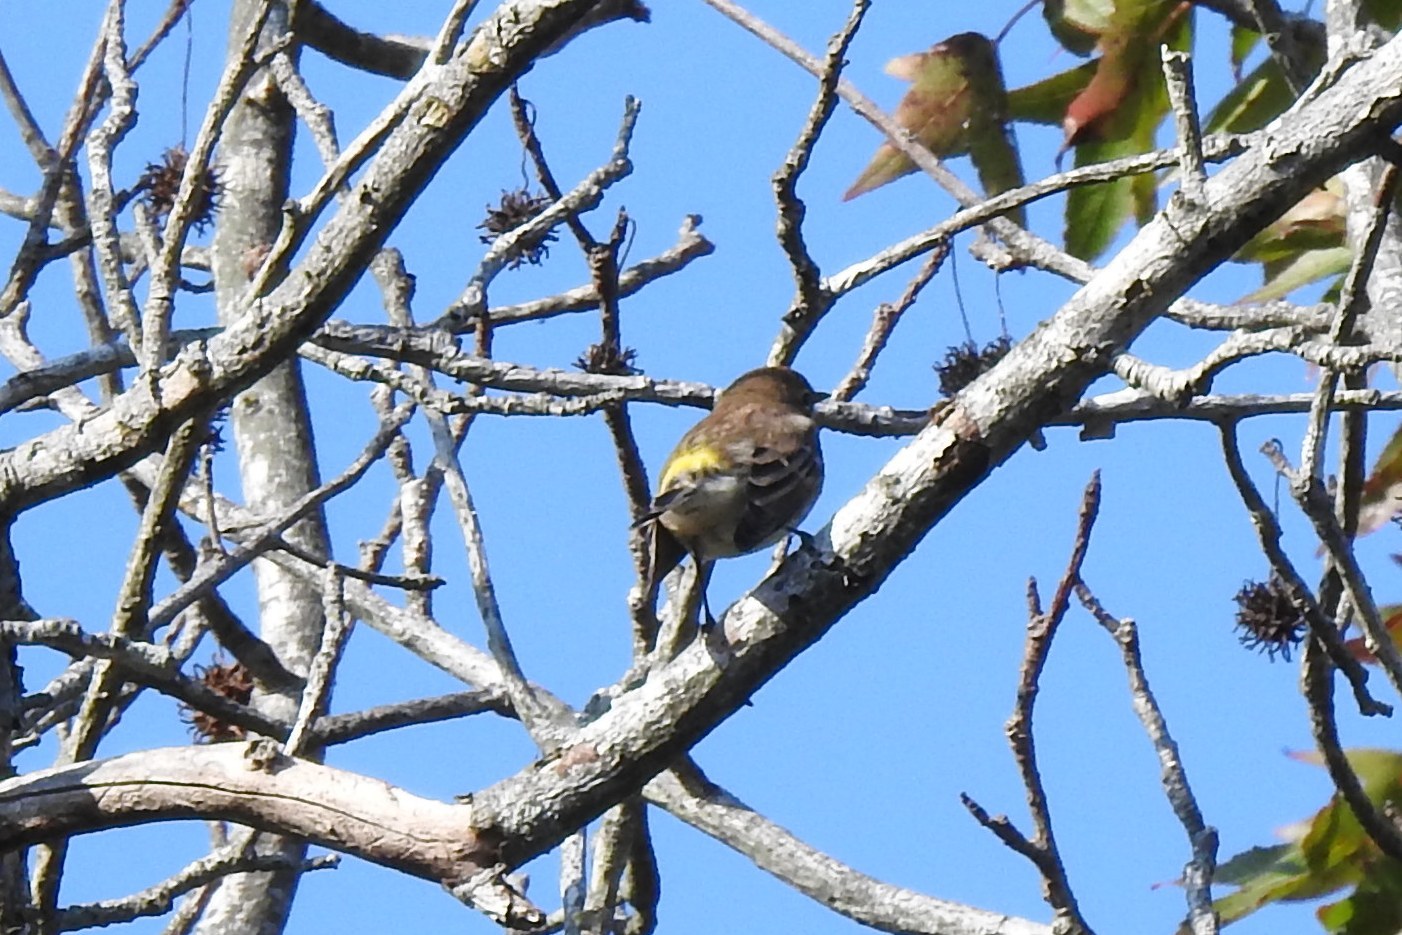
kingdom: Animalia
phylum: Chordata
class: Aves
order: Passeriformes
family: Parulidae
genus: Setophaga
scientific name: Setophaga coronata
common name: Myrtle warbler
